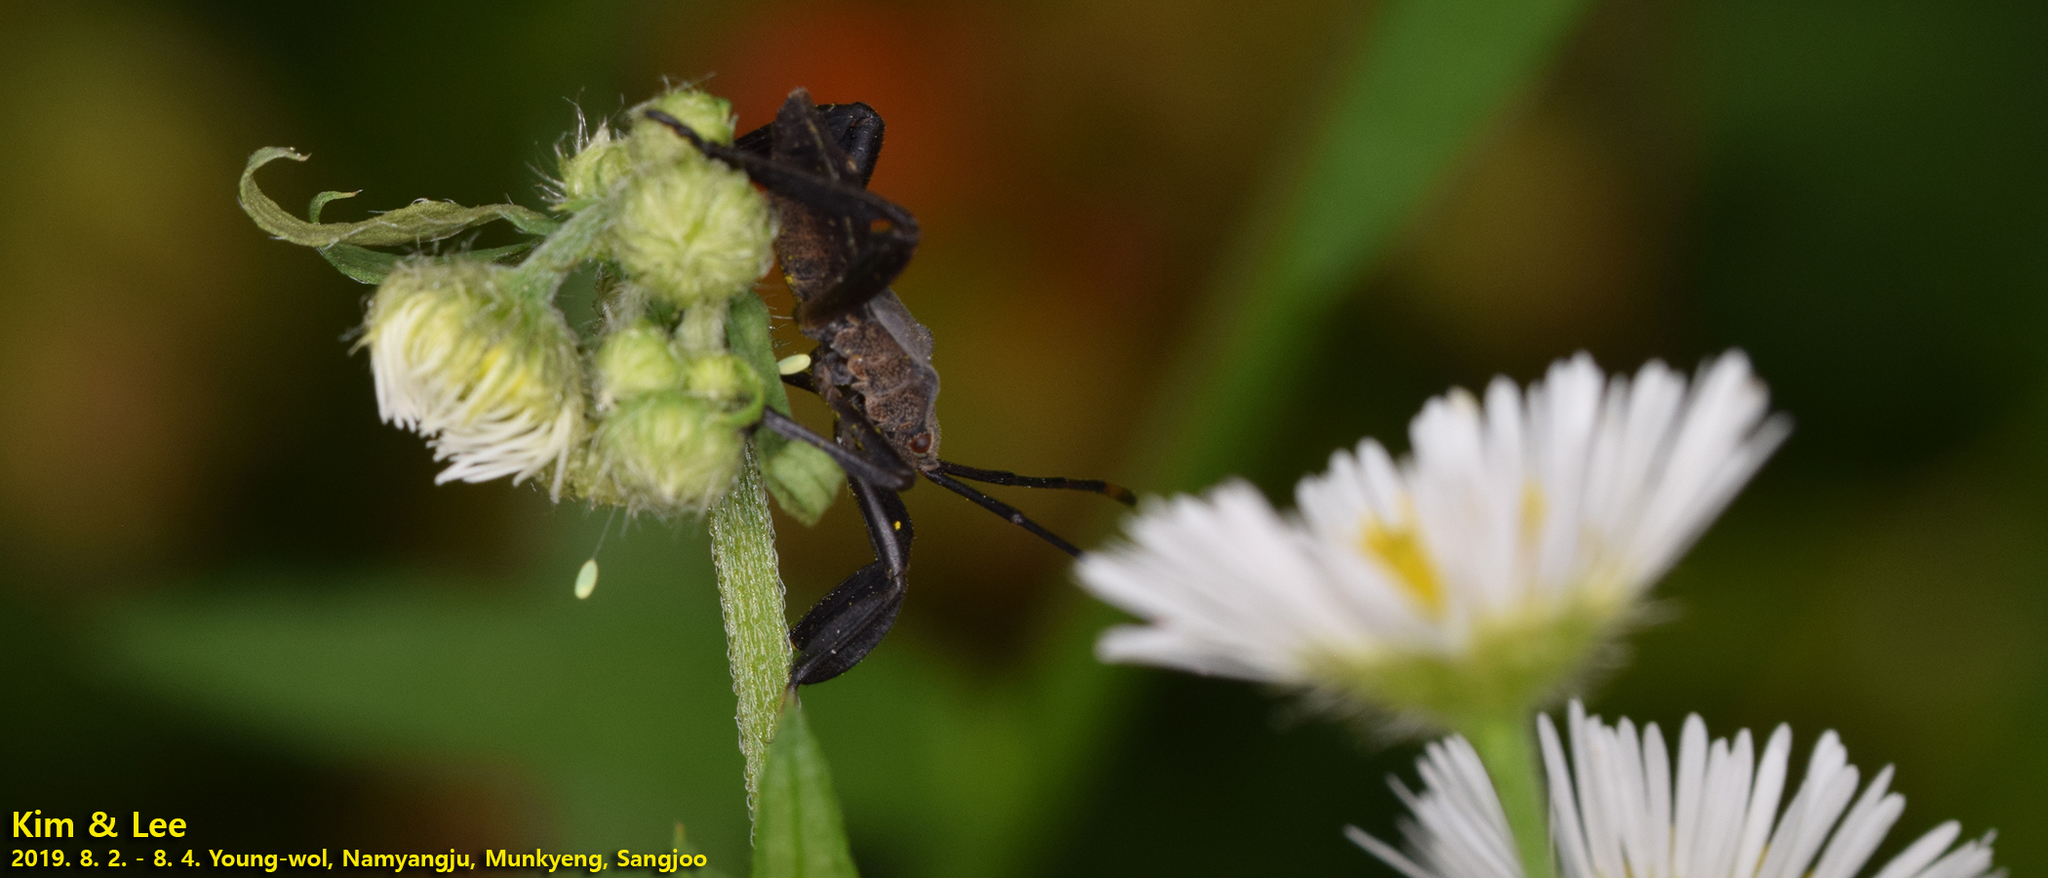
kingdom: Animalia
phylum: Arthropoda
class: Insecta
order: Hemiptera
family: Coreidae
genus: Anoplocnemis
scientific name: Anoplocnemis dallasi
